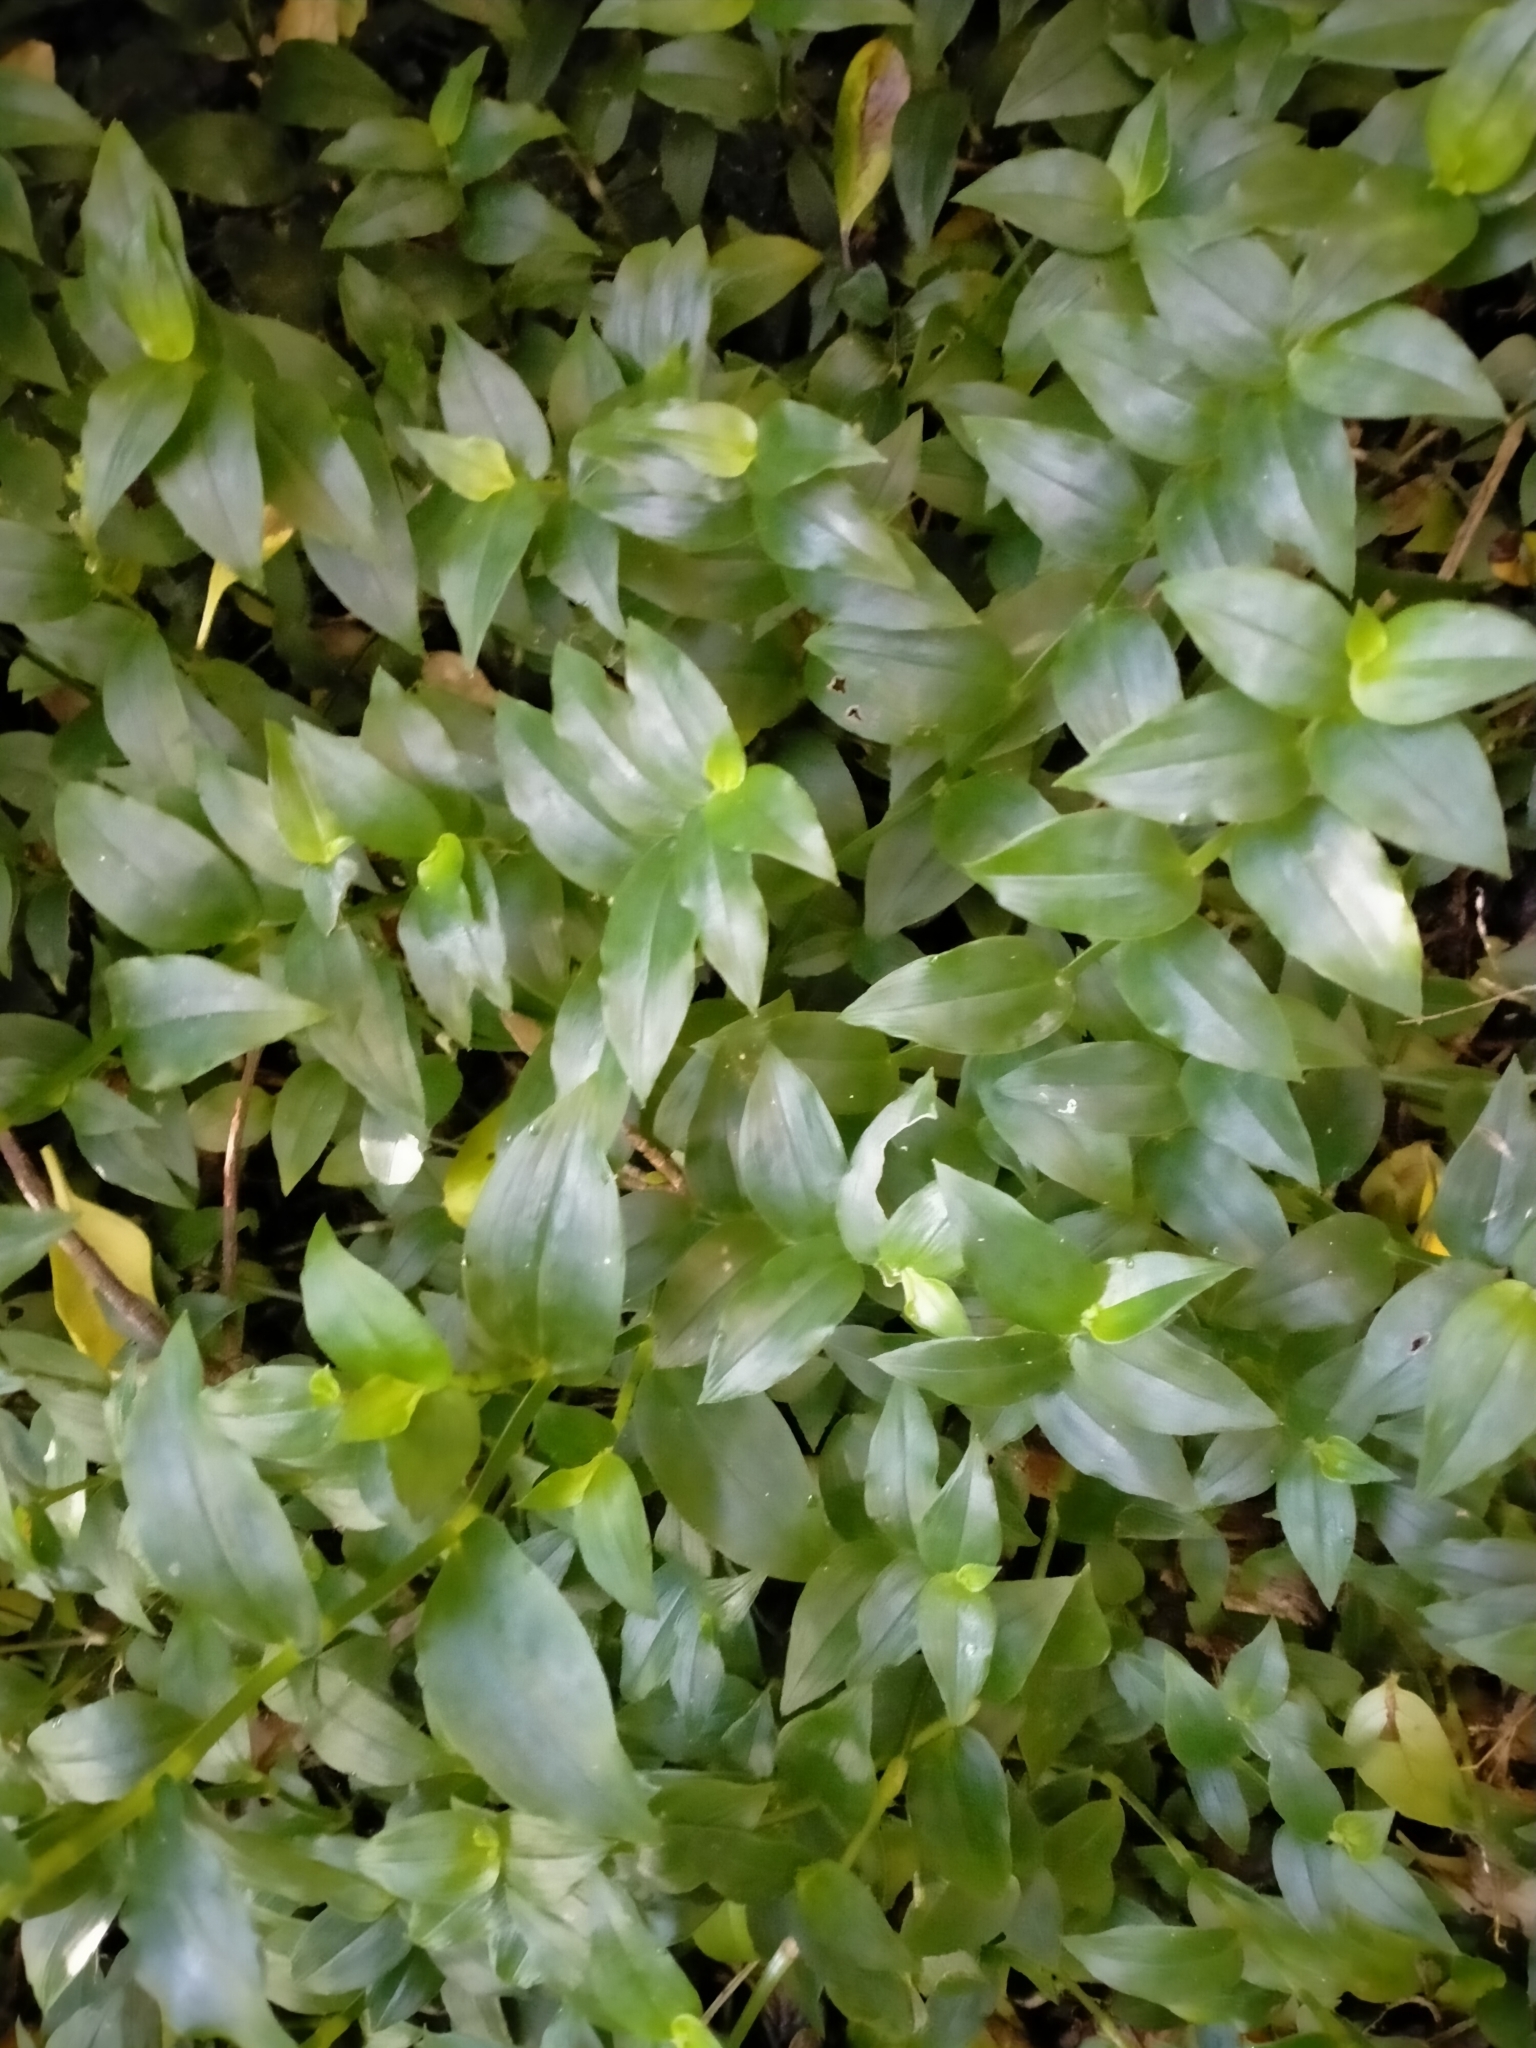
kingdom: Plantae
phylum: Tracheophyta
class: Liliopsida
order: Commelinales
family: Commelinaceae
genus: Tradescantia
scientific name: Tradescantia fluminensis
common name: Wandering-jew
